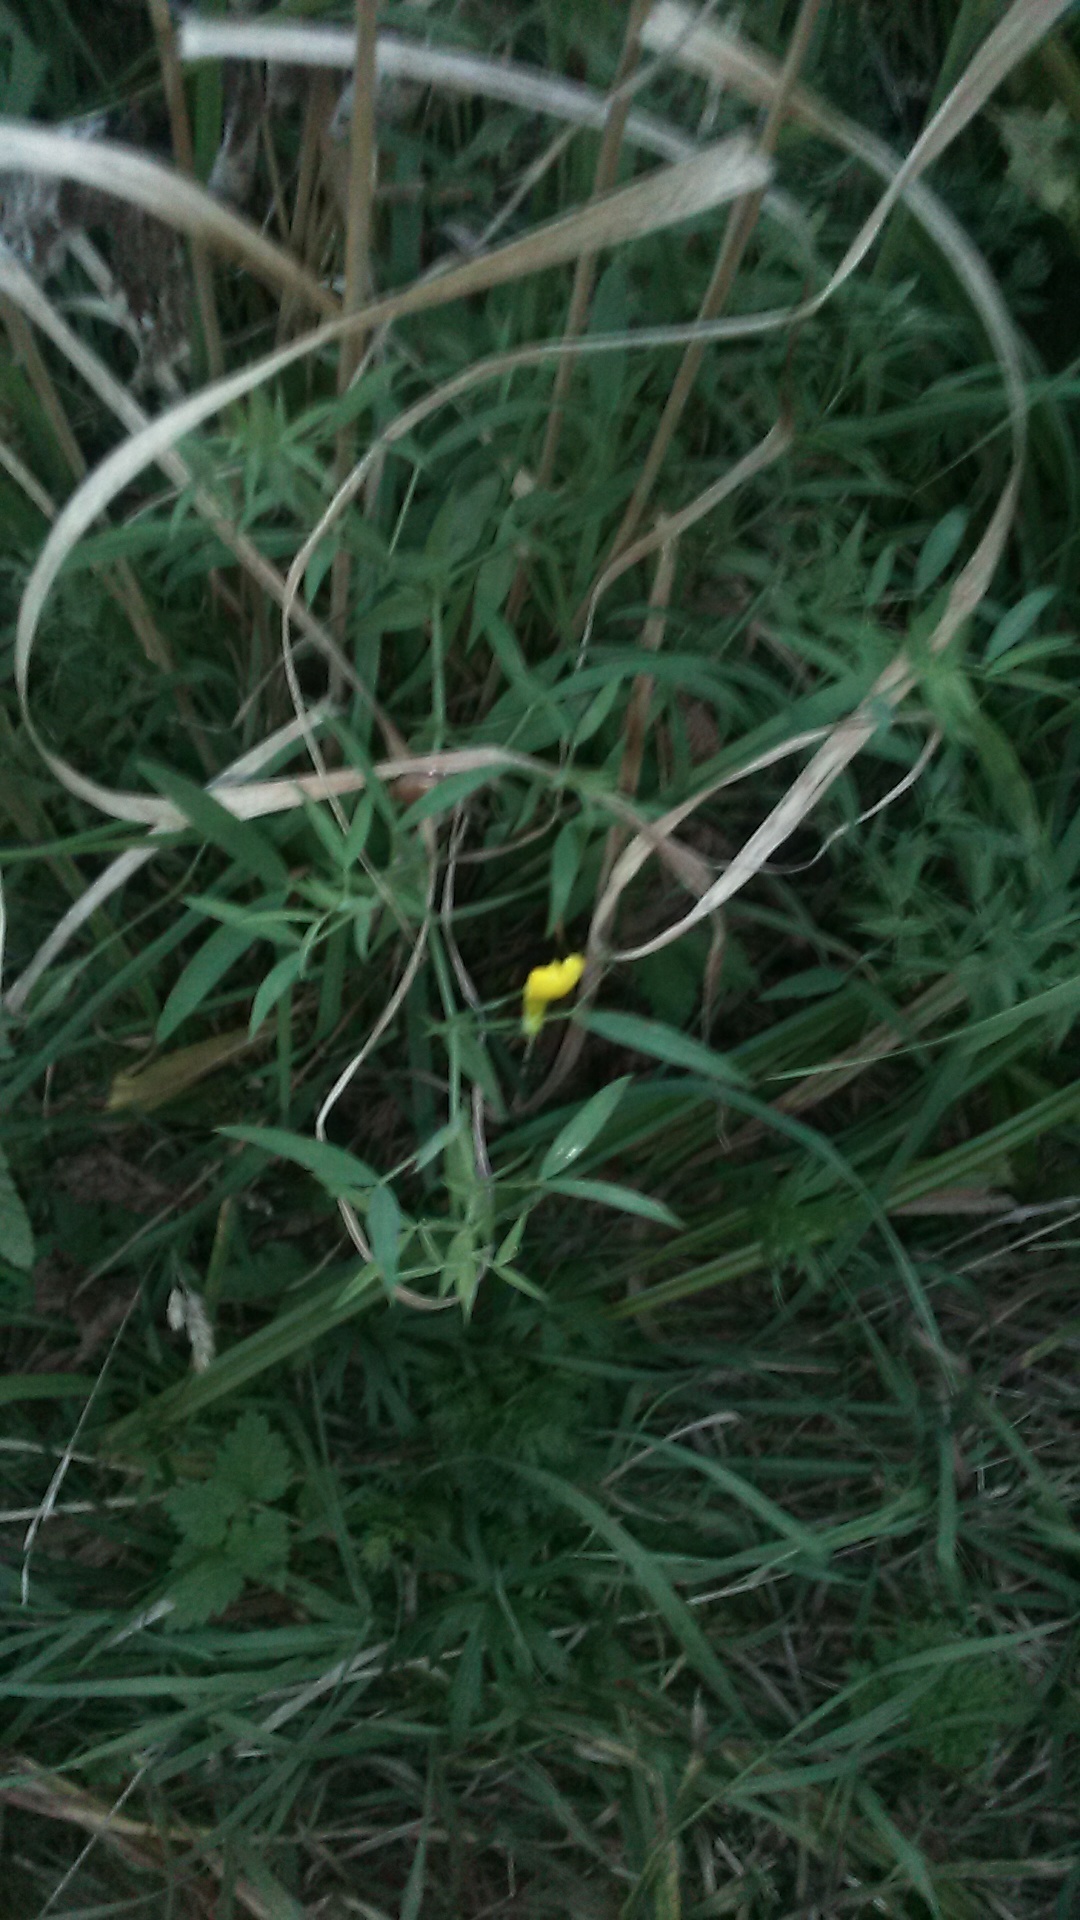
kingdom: Plantae
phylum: Tracheophyta
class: Magnoliopsida
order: Fabales
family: Fabaceae
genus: Lathyrus
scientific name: Lathyrus pratensis
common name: Meadow vetchling
